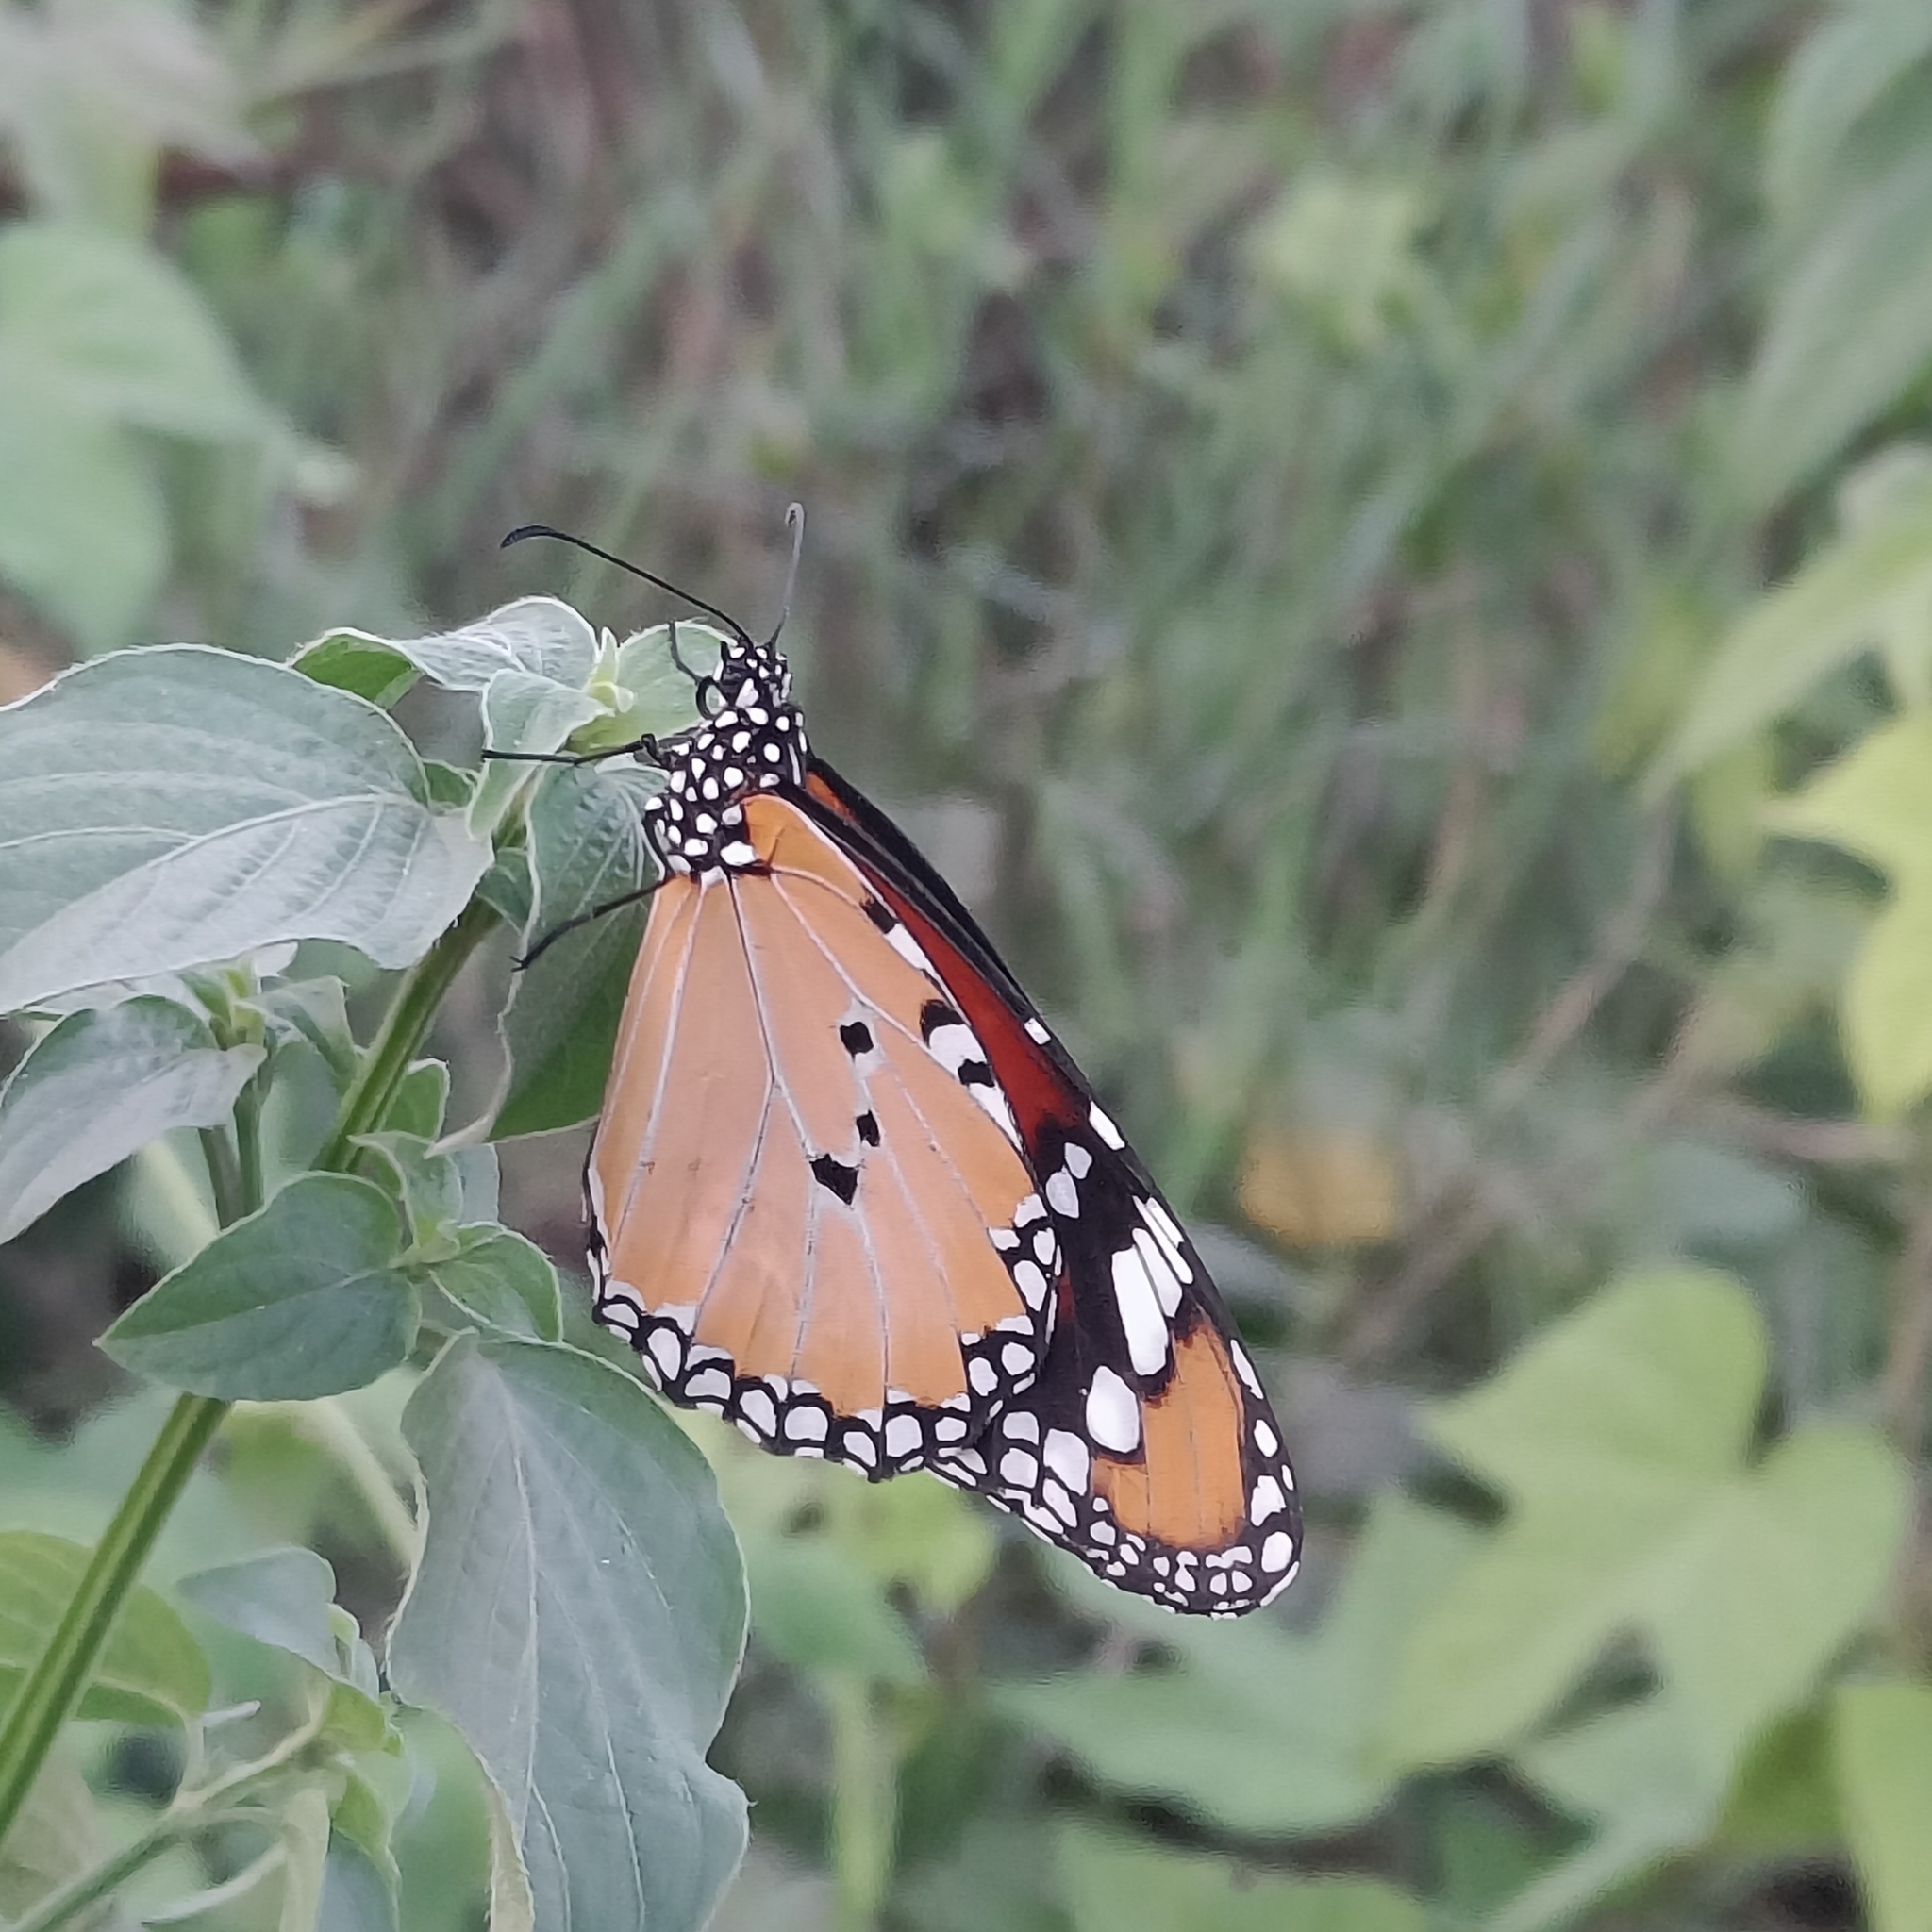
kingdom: Animalia
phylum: Arthropoda
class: Insecta
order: Lepidoptera
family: Nymphalidae
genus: Danaus
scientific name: Danaus chrysippus
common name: Plain tiger
